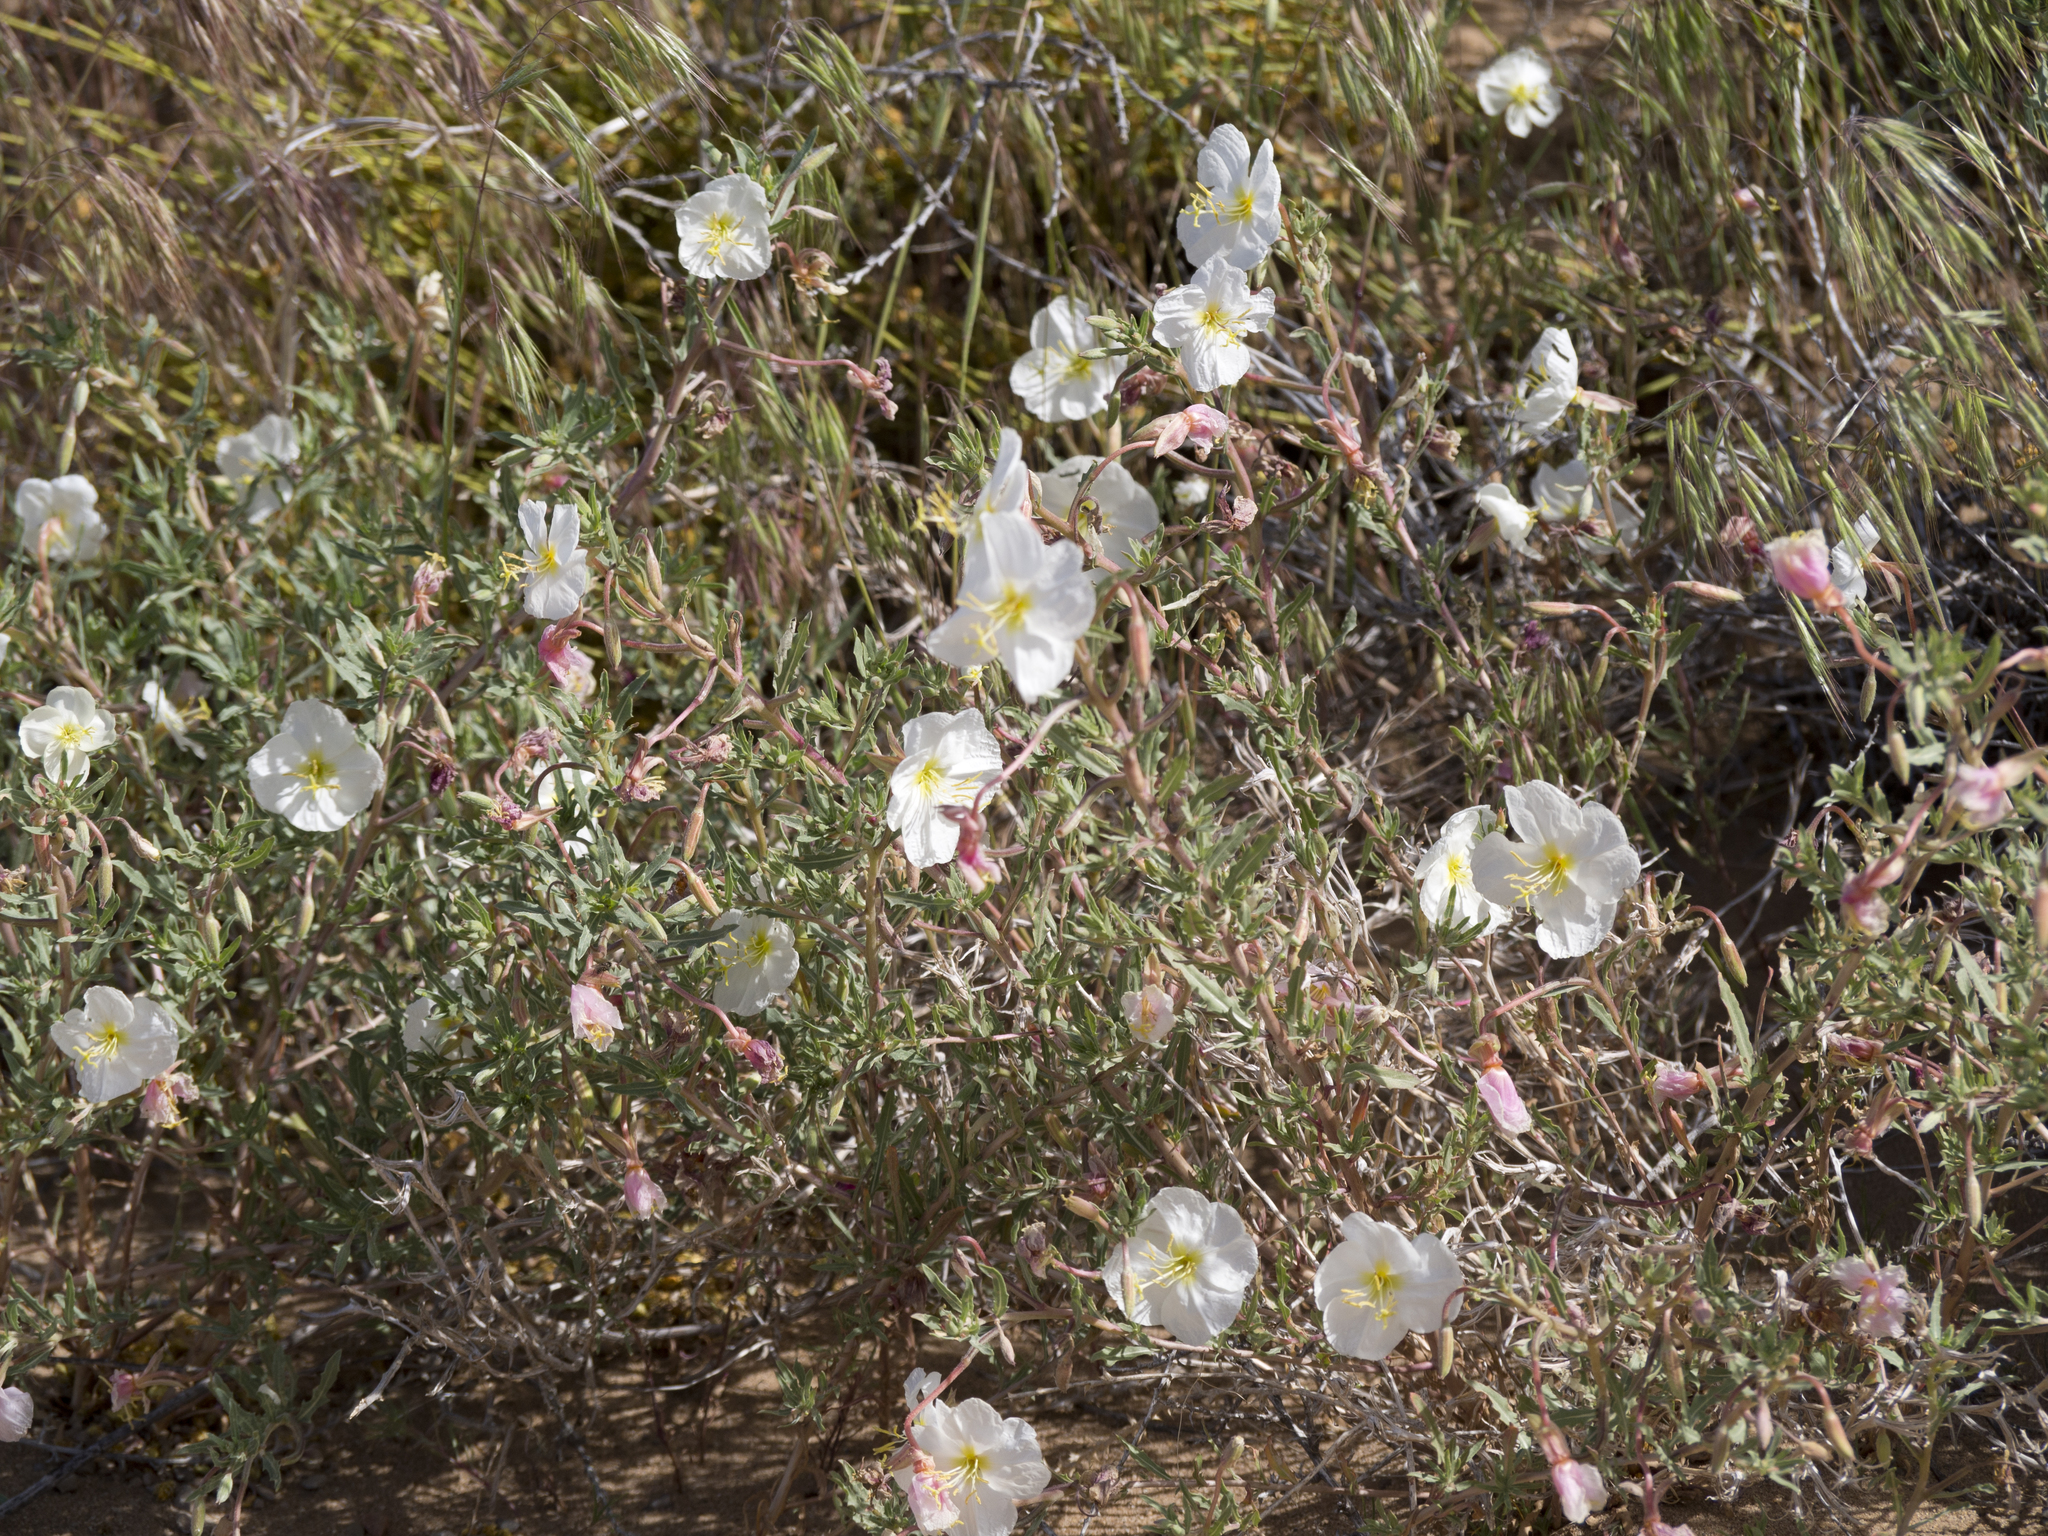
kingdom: Plantae
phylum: Tracheophyta
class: Magnoliopsida
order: Myrtales
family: Onagraceae
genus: Oenothera
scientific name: Oenothera pallida
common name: Pale evening-primrose
